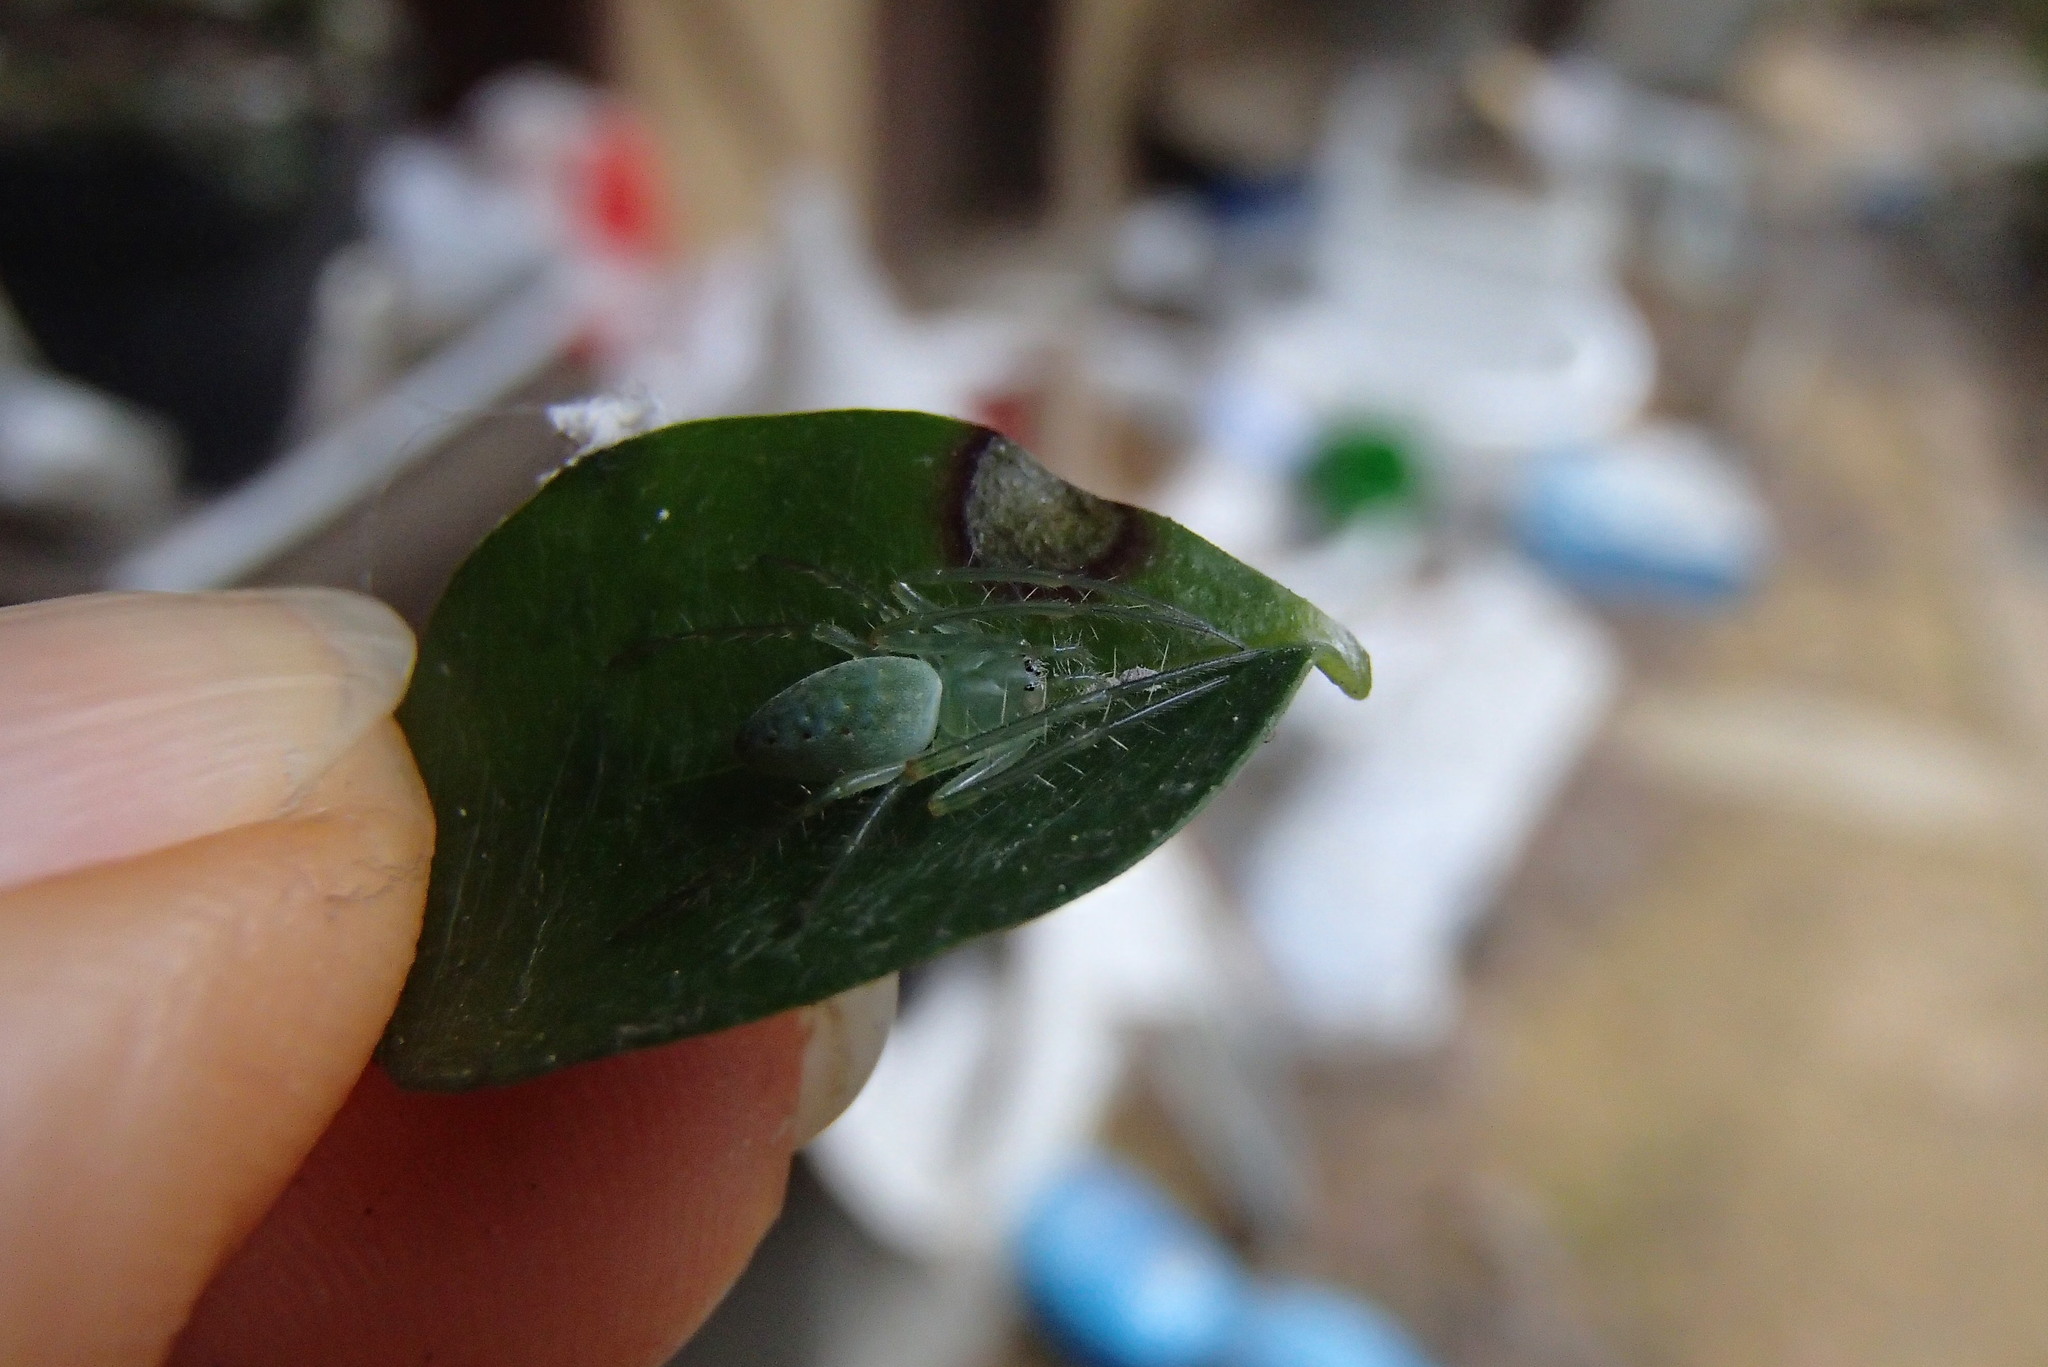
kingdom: Animalia
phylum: Arthropoda
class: Arachnida
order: Araneae
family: Araneidae
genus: Araneus
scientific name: Araneus talipedatus
